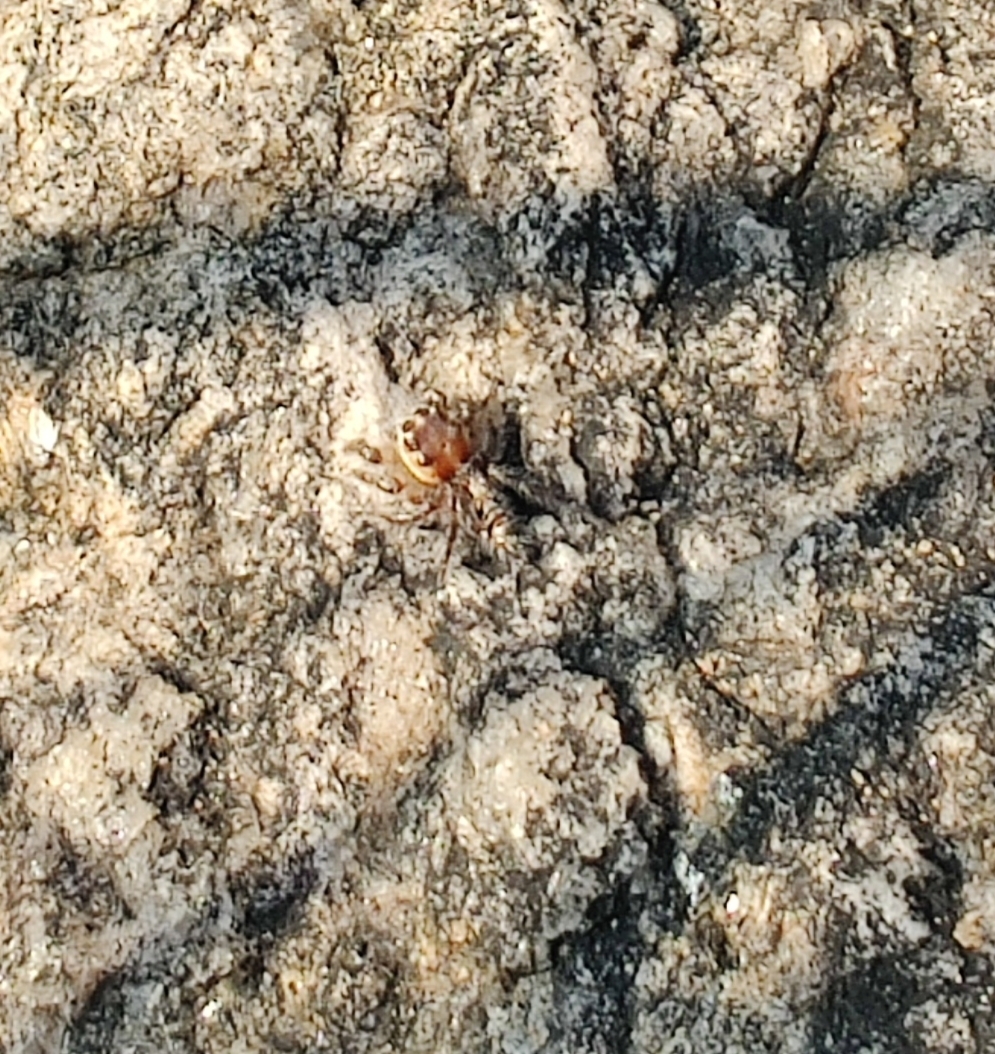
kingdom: Animalia
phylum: Arthropoda
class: Arachnida
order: Araneae
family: Salticidae
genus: Hyllus
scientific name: Hyllus semicupreus
